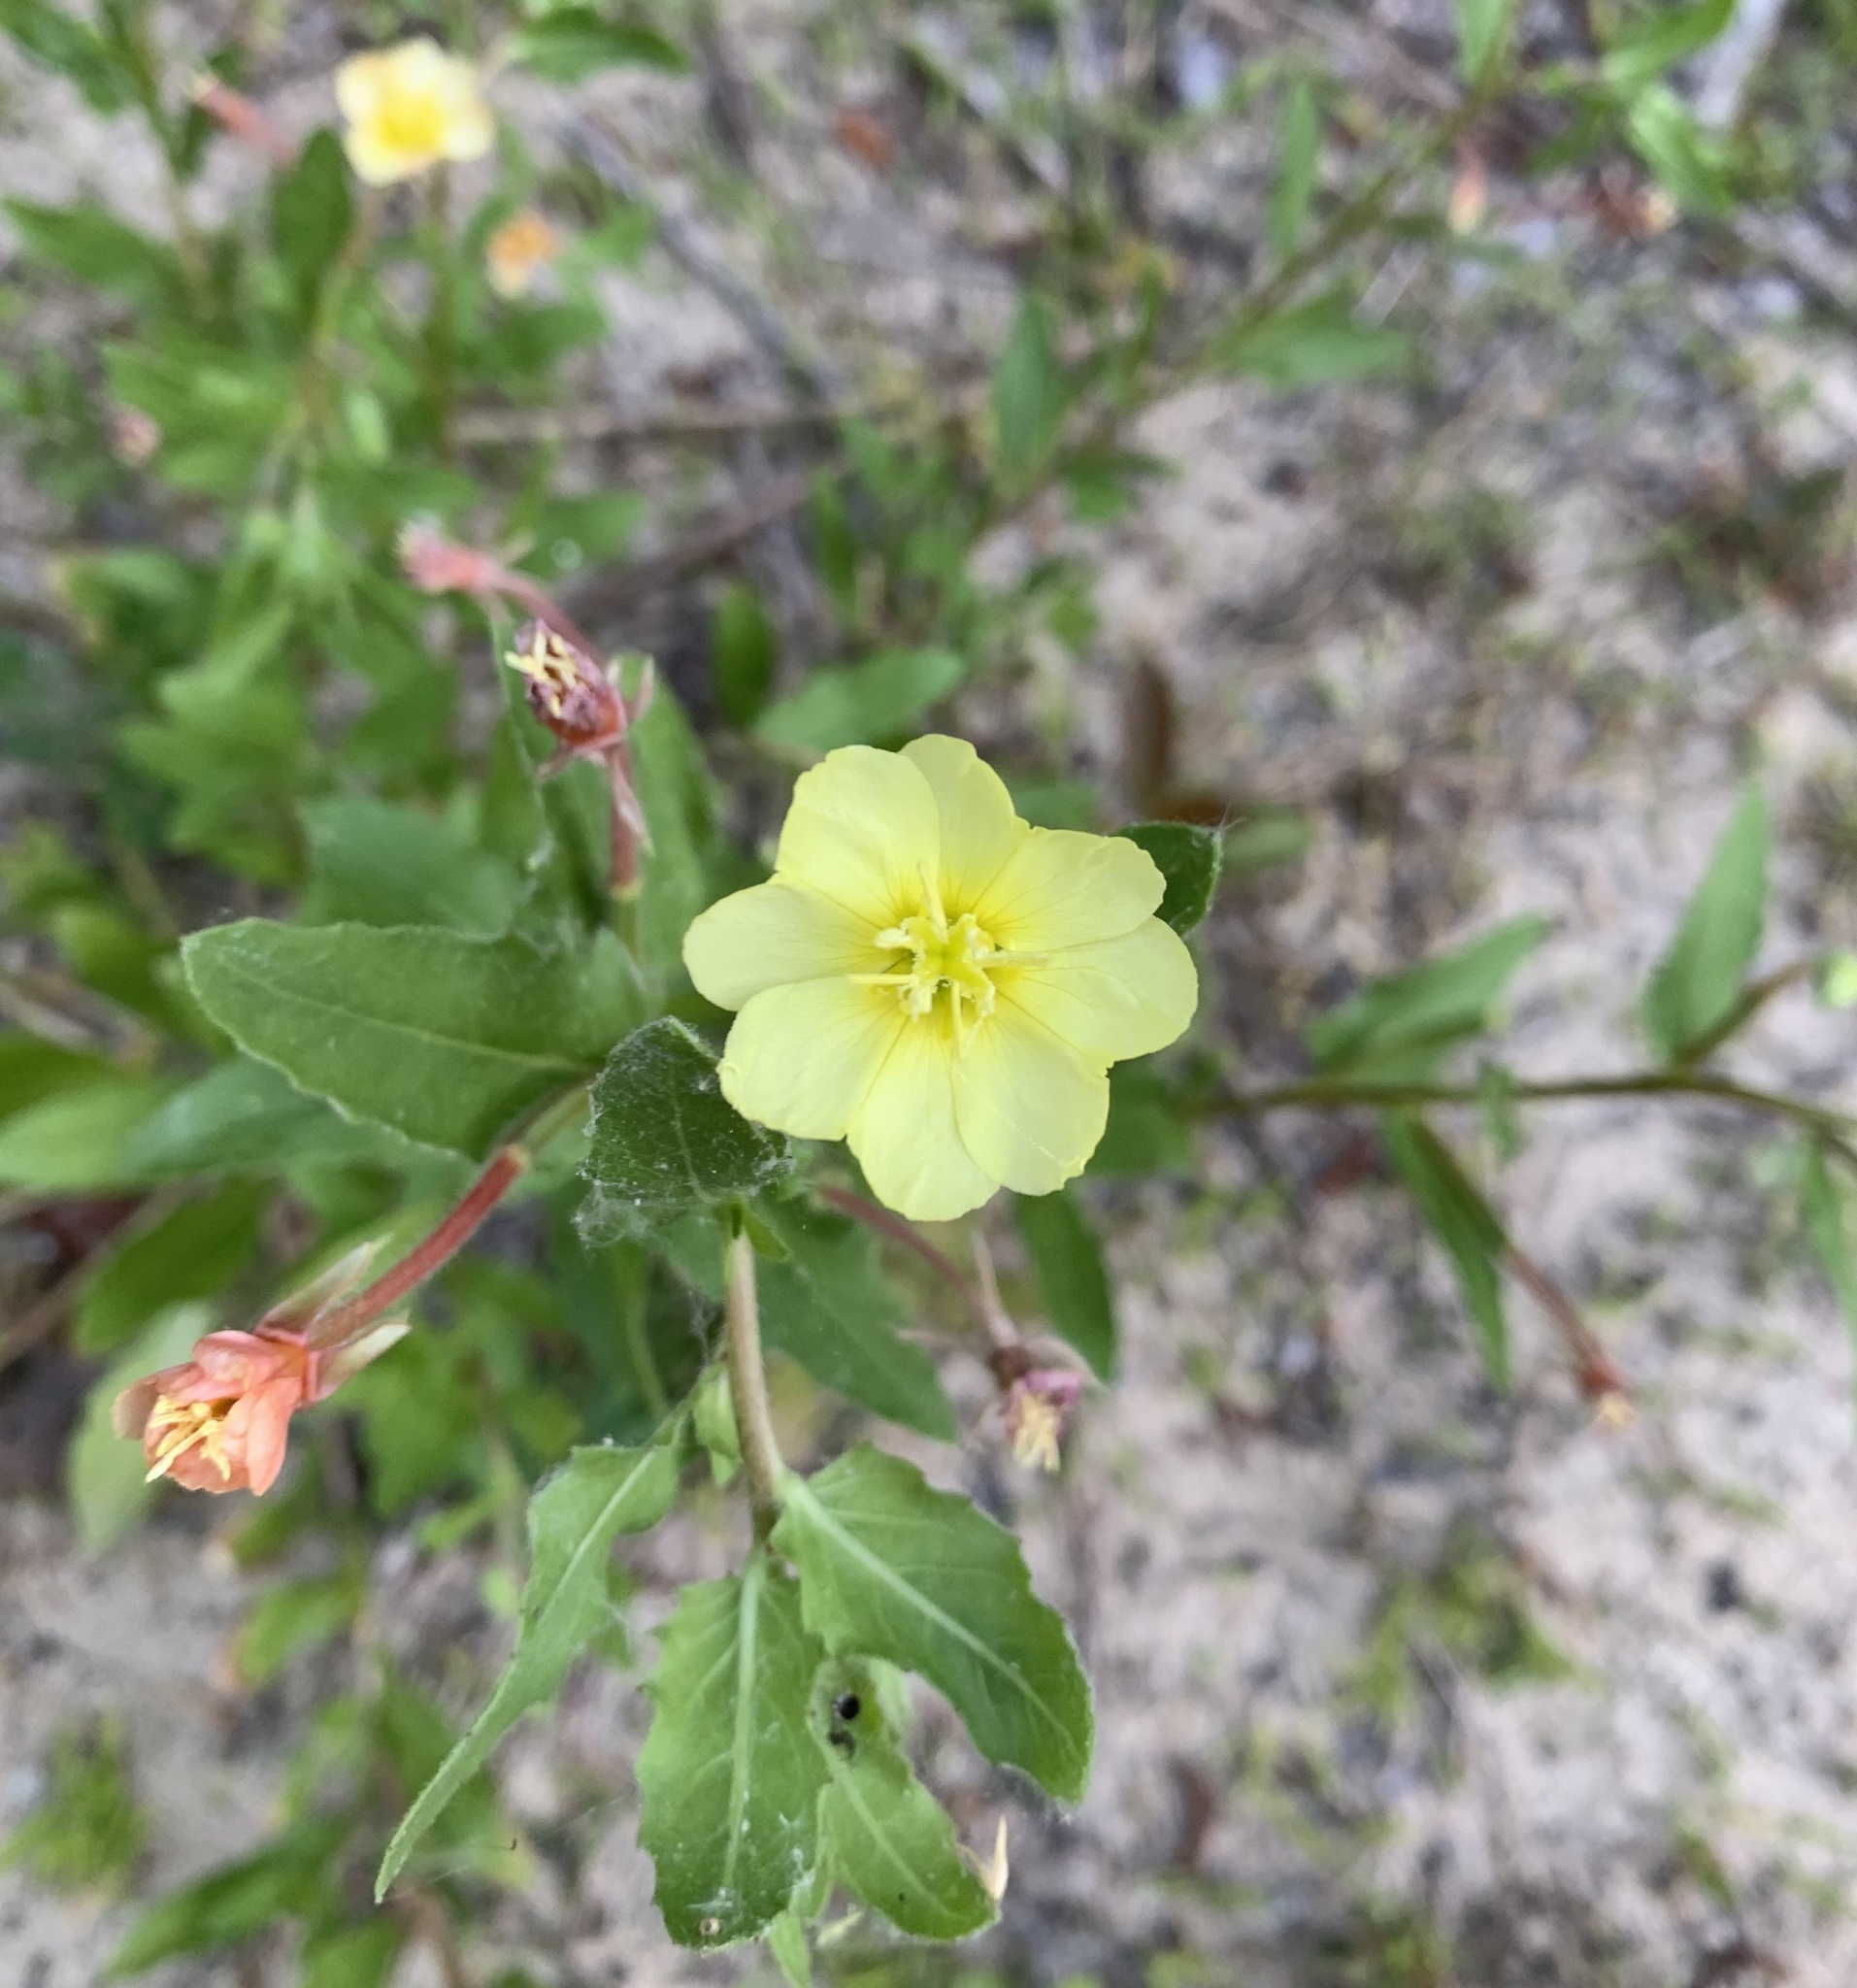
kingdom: Plantae
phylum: Tracheophyta
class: Magnoliopsida
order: Myrtales
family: Onagraceae
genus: Oenothera
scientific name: Oenothera laciniata
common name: Cut-leaved evening-primrose
